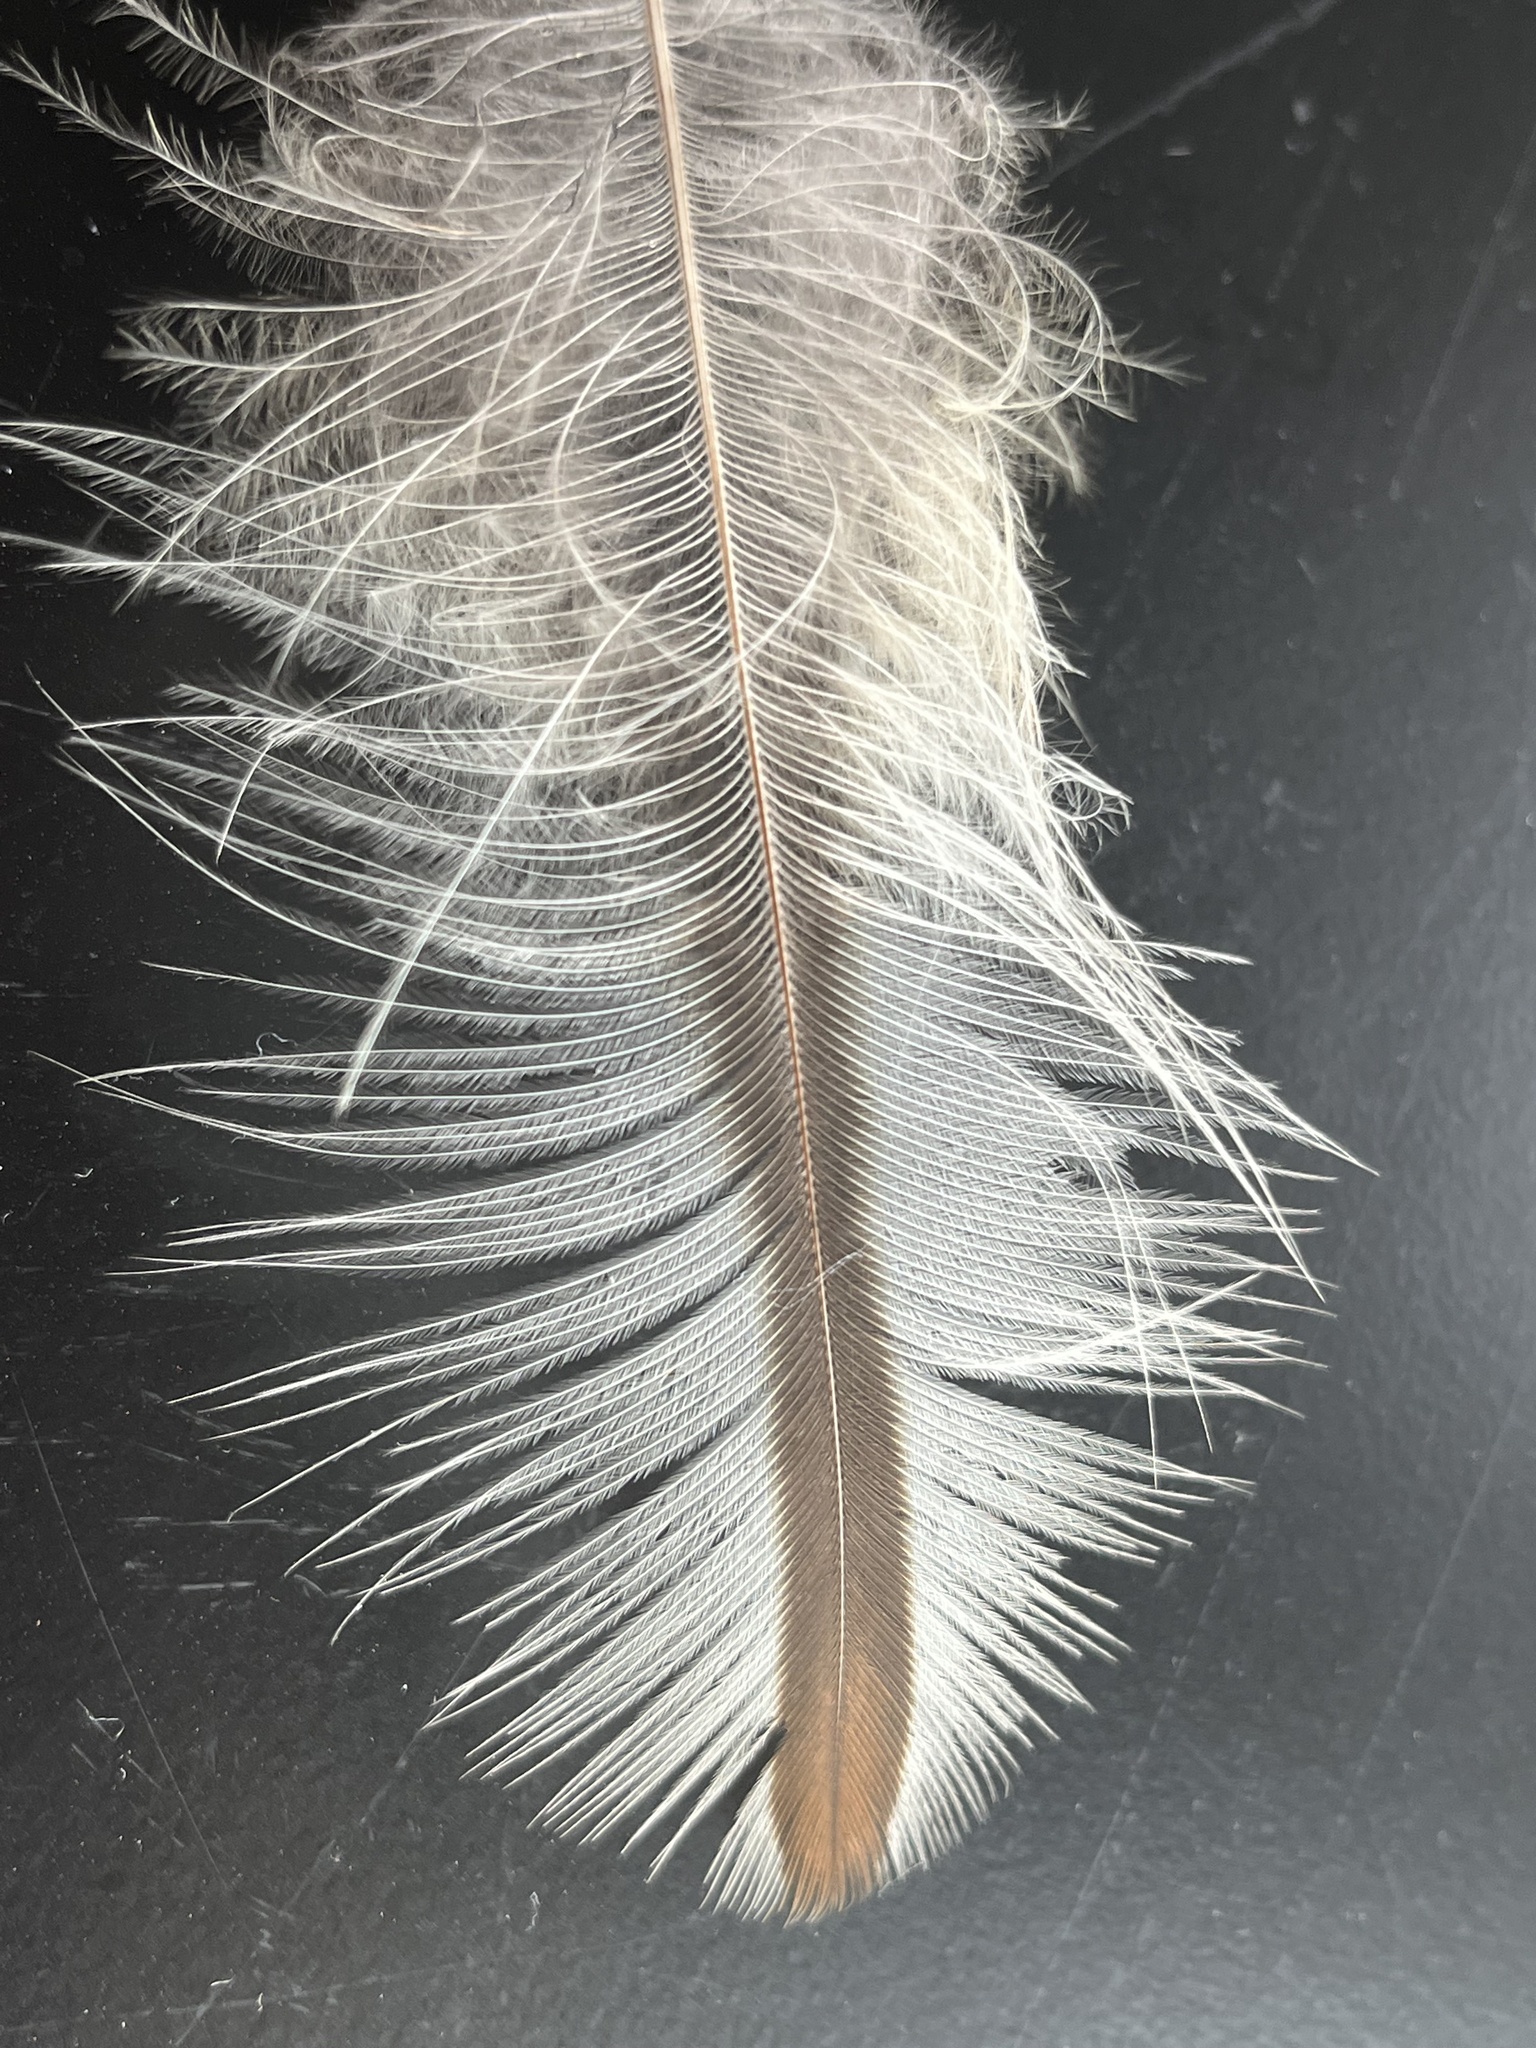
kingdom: Animalia
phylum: Chordata
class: Aves
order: Strigiformes
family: Strigidae
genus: Strix
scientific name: Strix varia
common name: Barred owl
